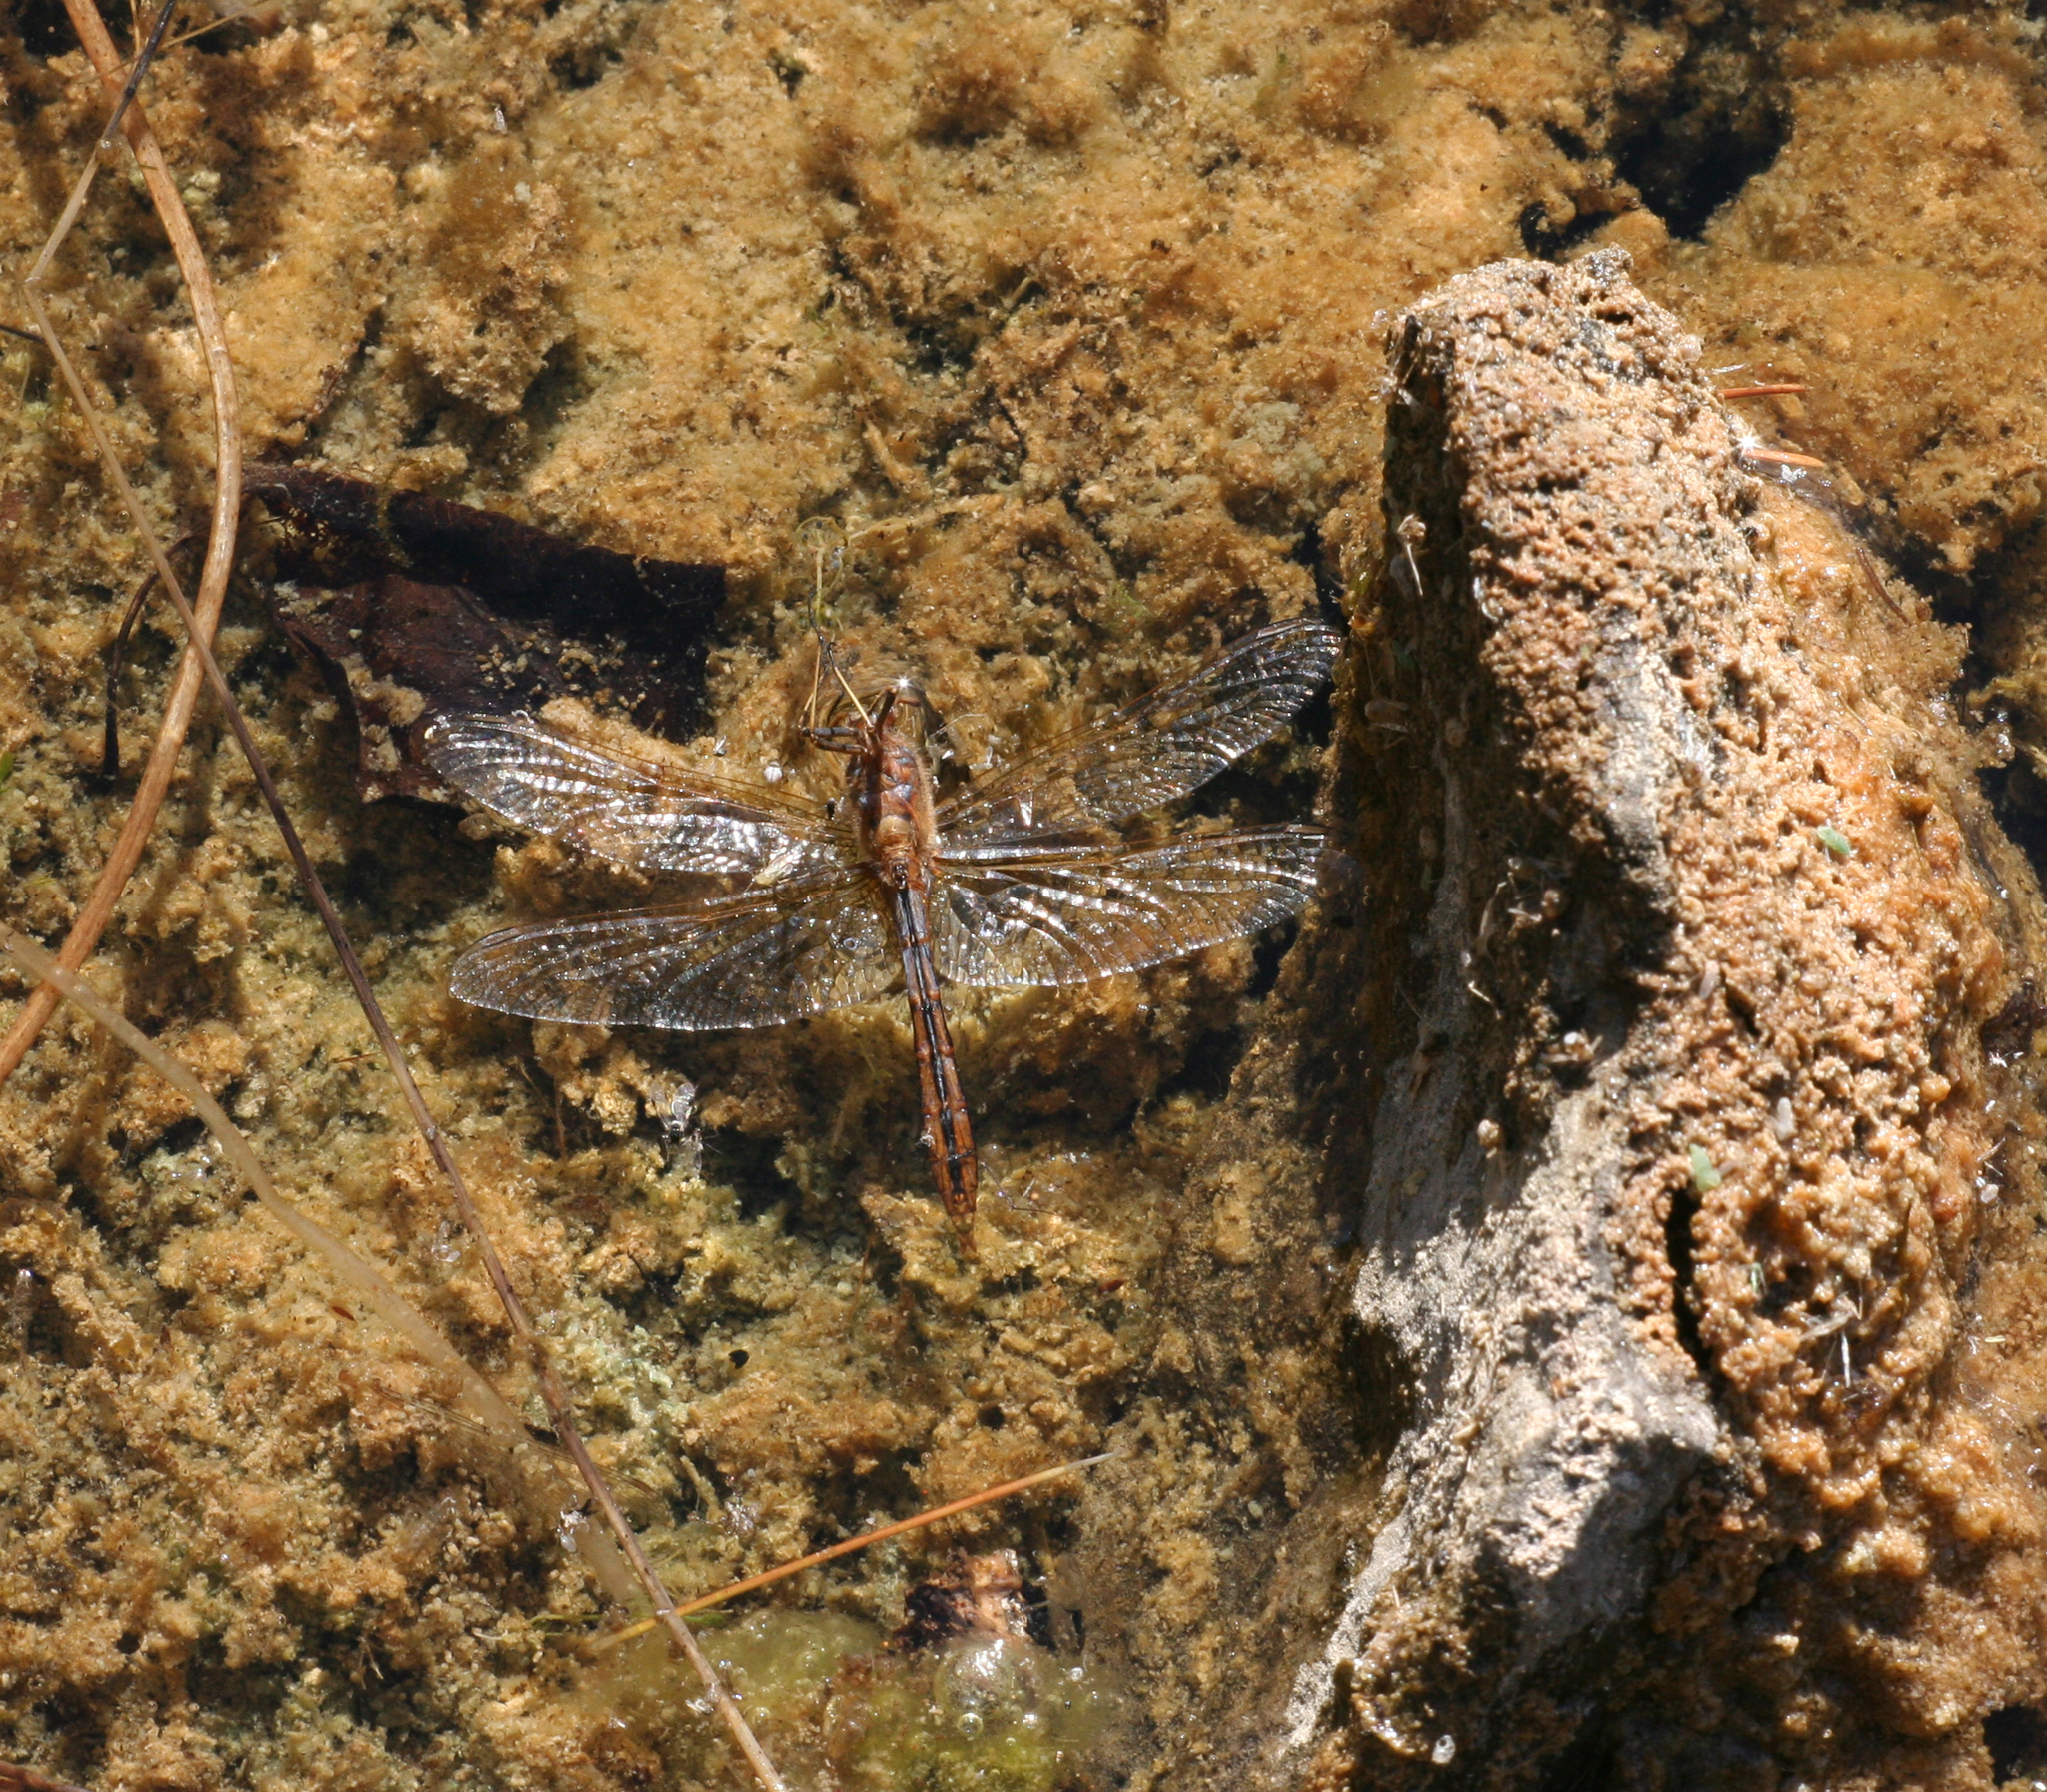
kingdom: Animalia
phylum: Arthropoda
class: Insecta
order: Odonata
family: Libellulidae
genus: Sympetrum
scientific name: Sympetrum vulgatum
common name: Vagrant darter
